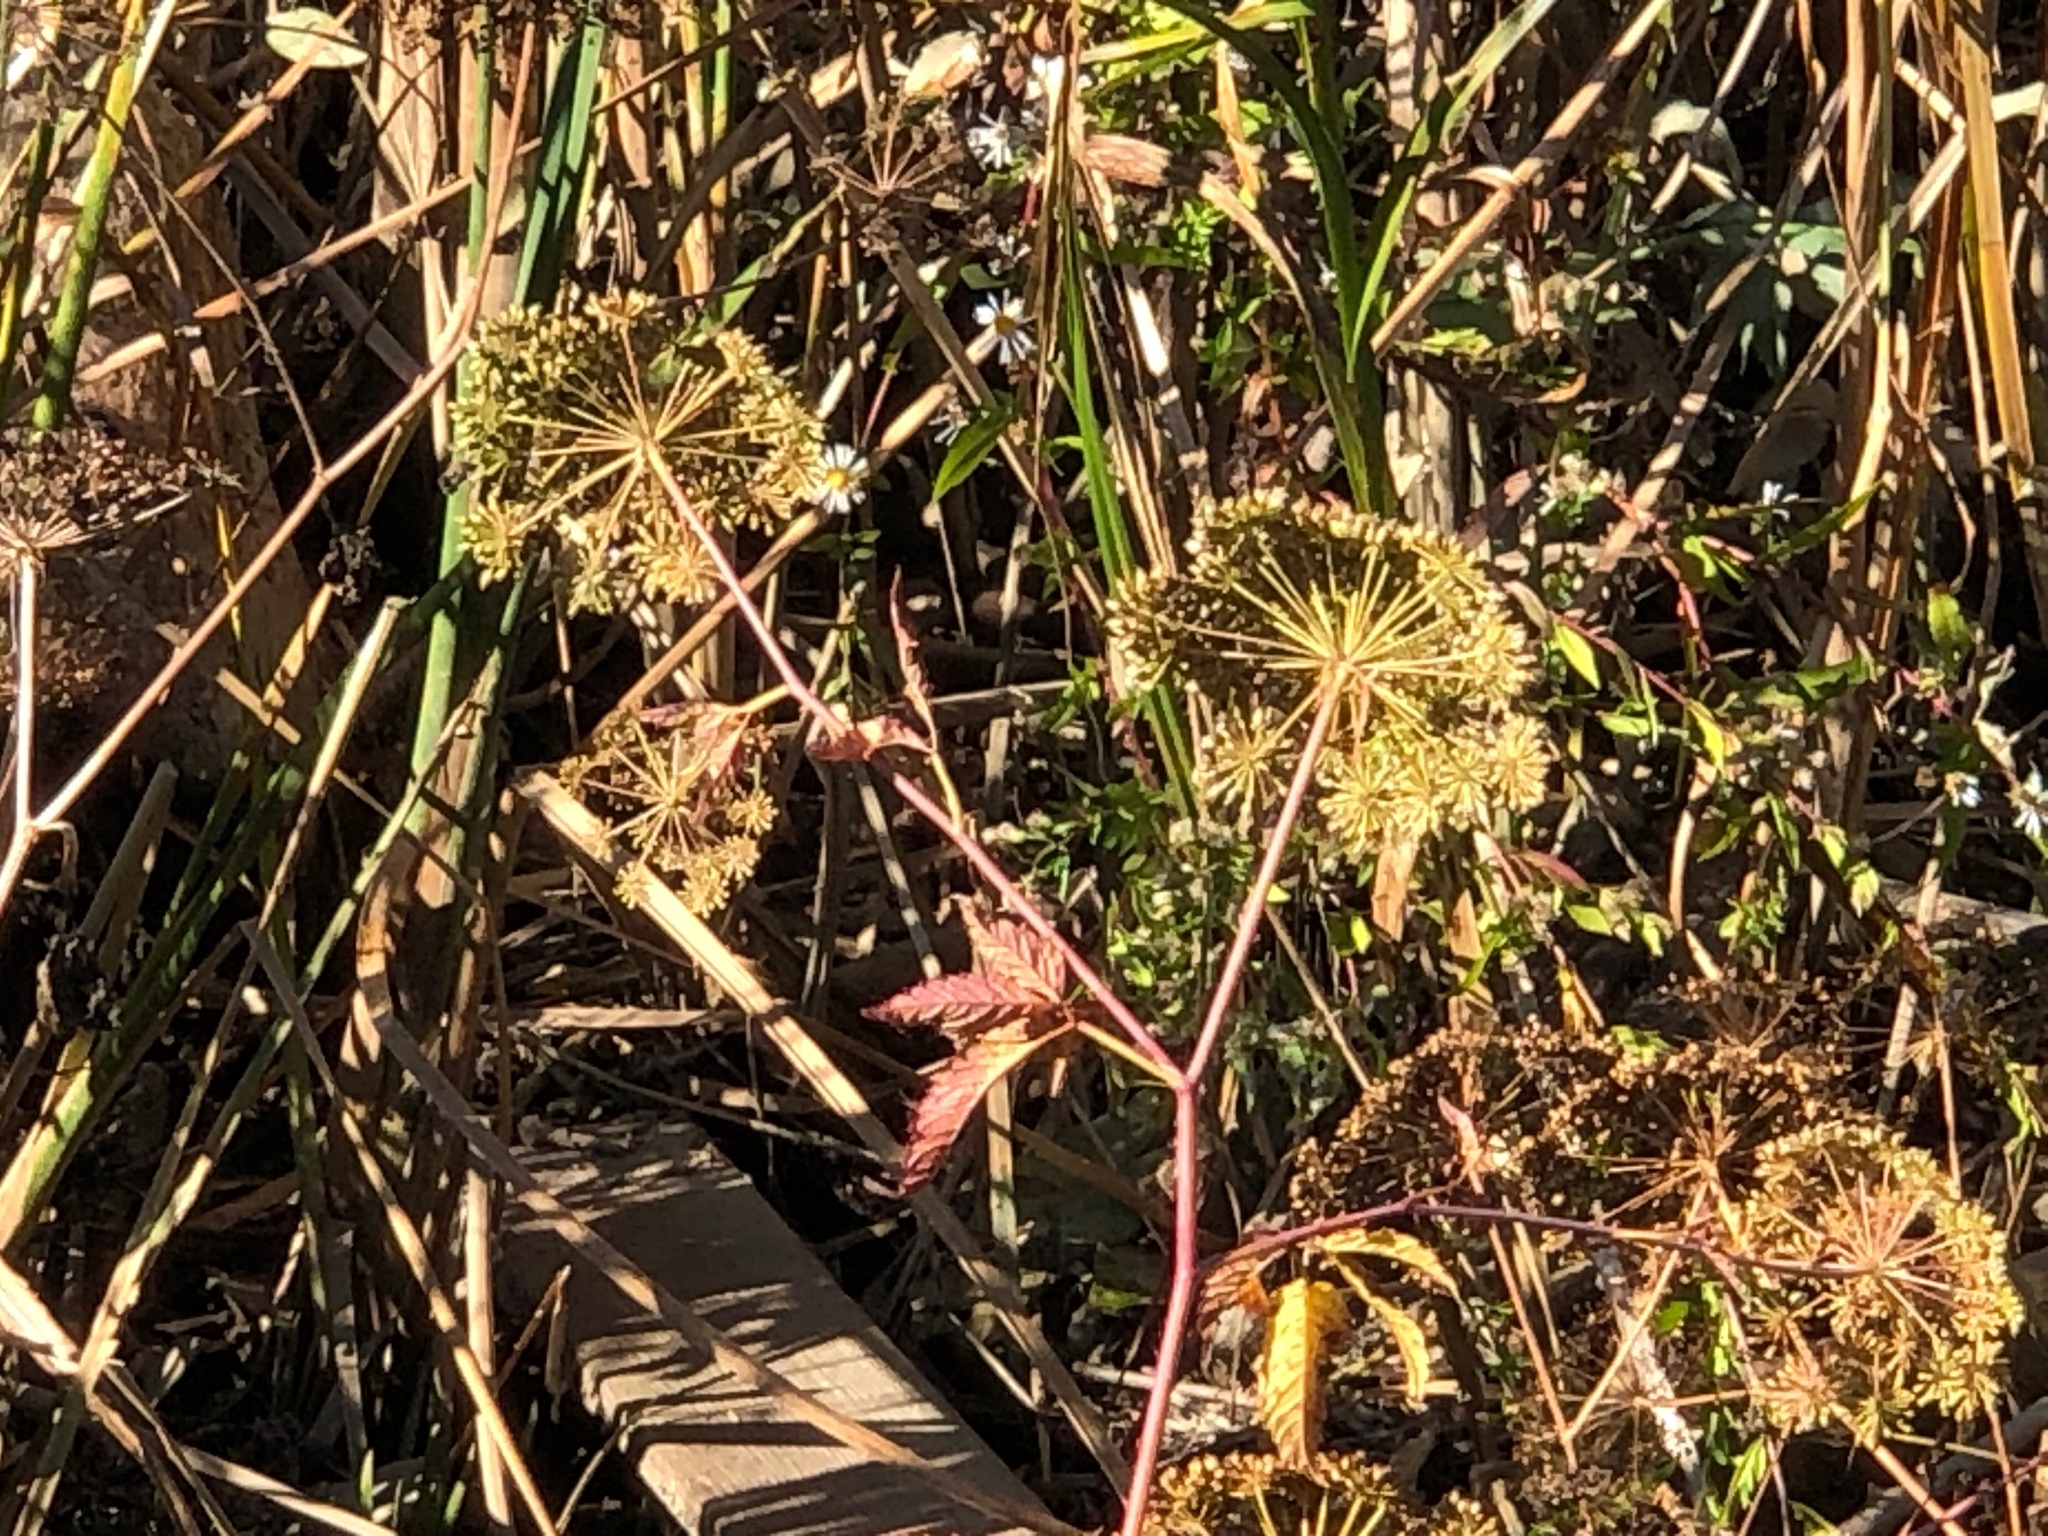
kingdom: Plantae
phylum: Tracheophyta
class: Magnoliopsida
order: Apiales
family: Apiaceae
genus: Cicuta
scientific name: Cicuta maculata
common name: Spotted cowbane
